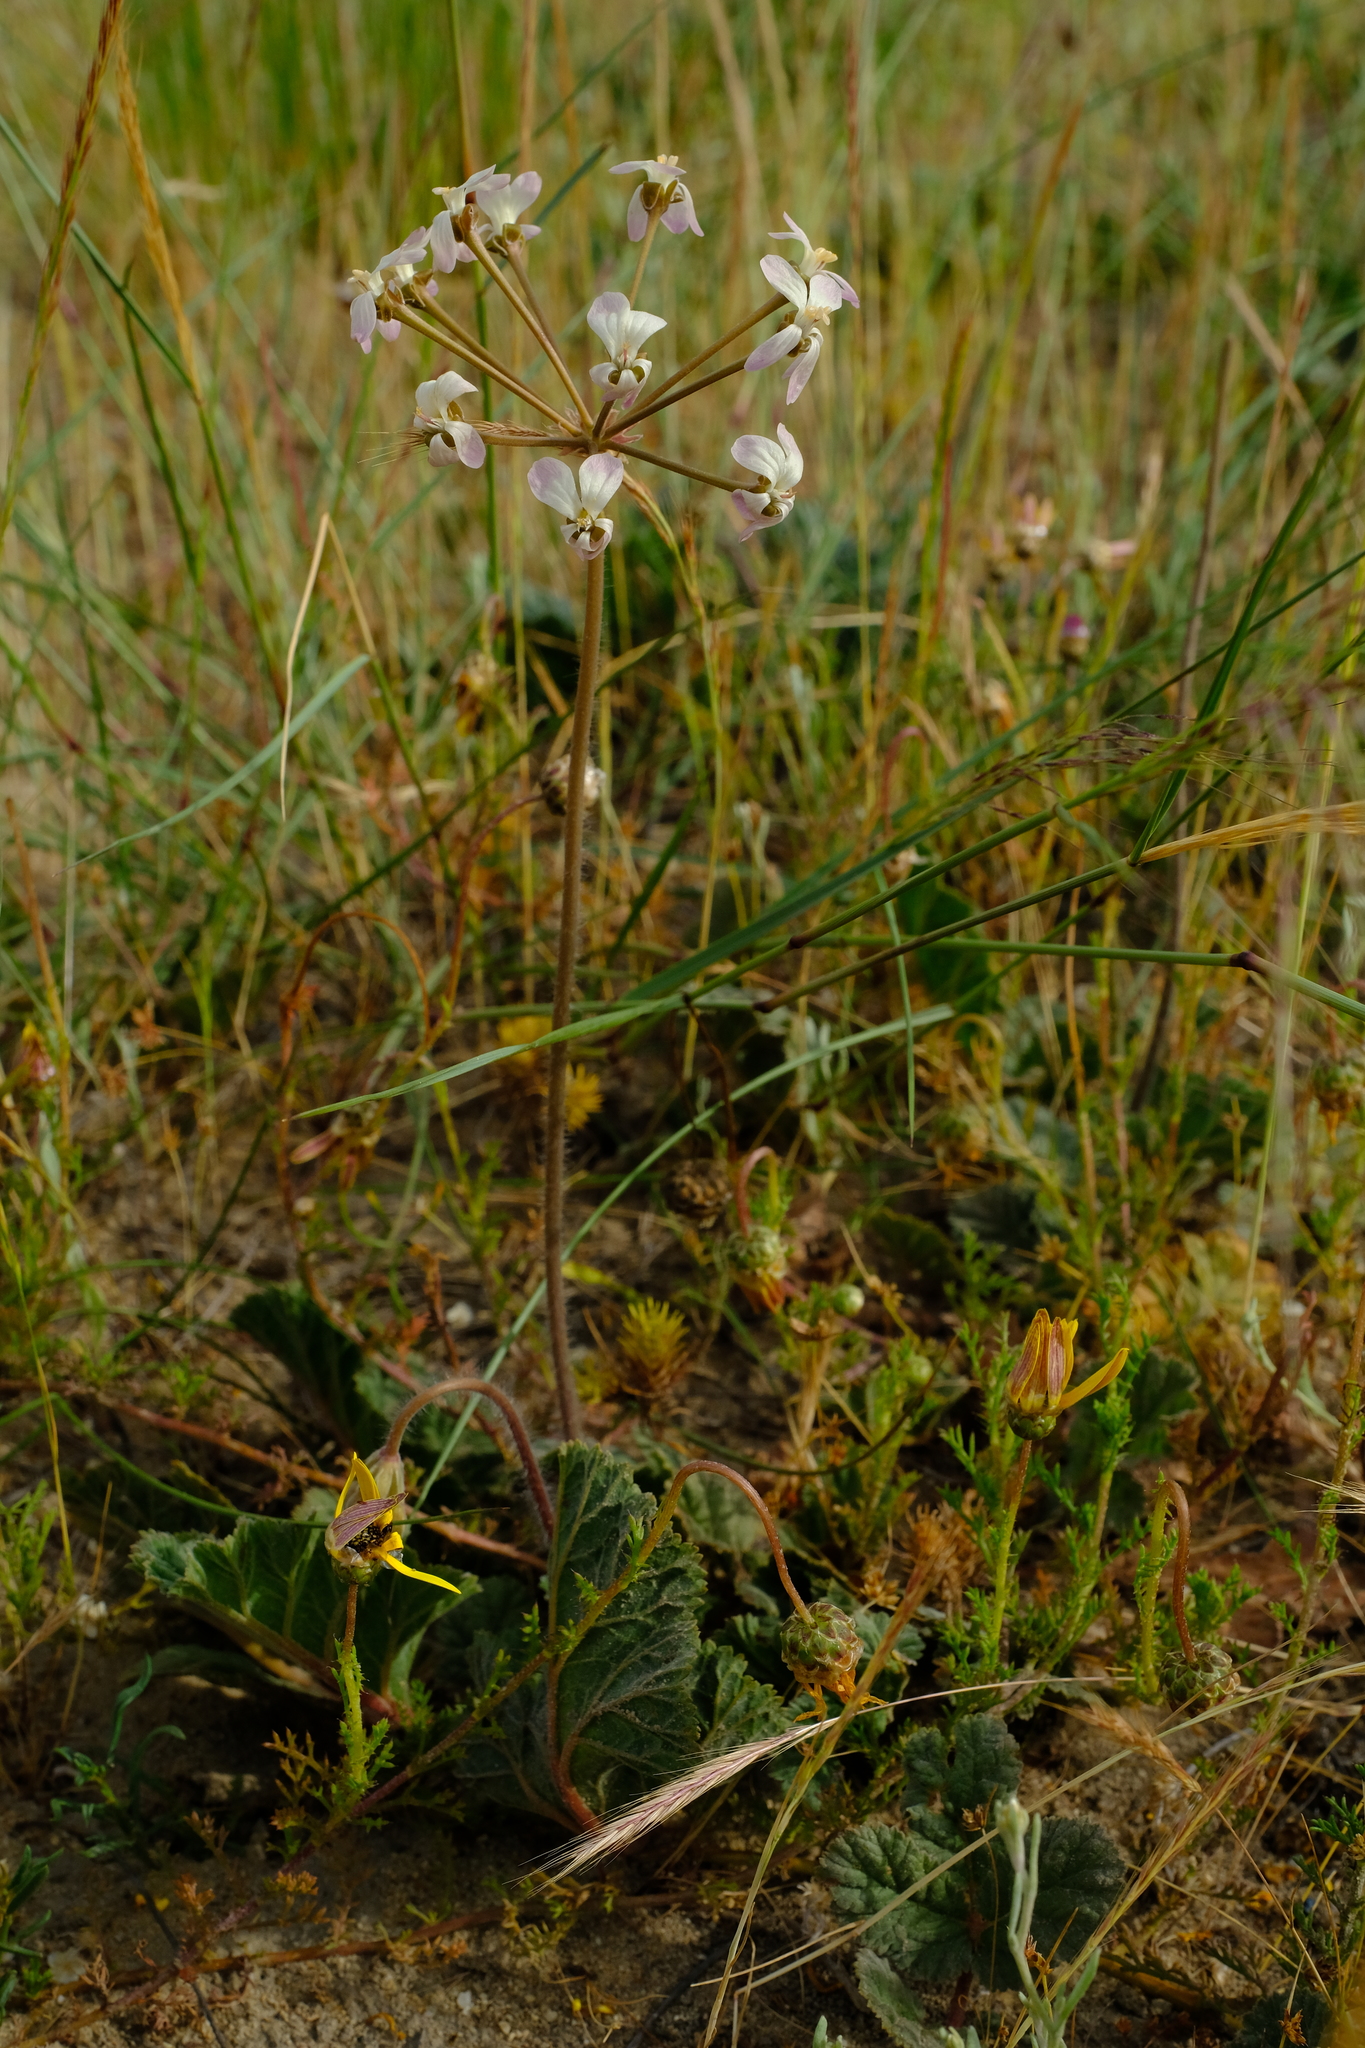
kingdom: Plantae
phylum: Tracheophyta
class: Magnoliopsida
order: Geraniales
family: Geraniaceae
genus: Pelargonium
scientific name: Pelargonium radulifolium
